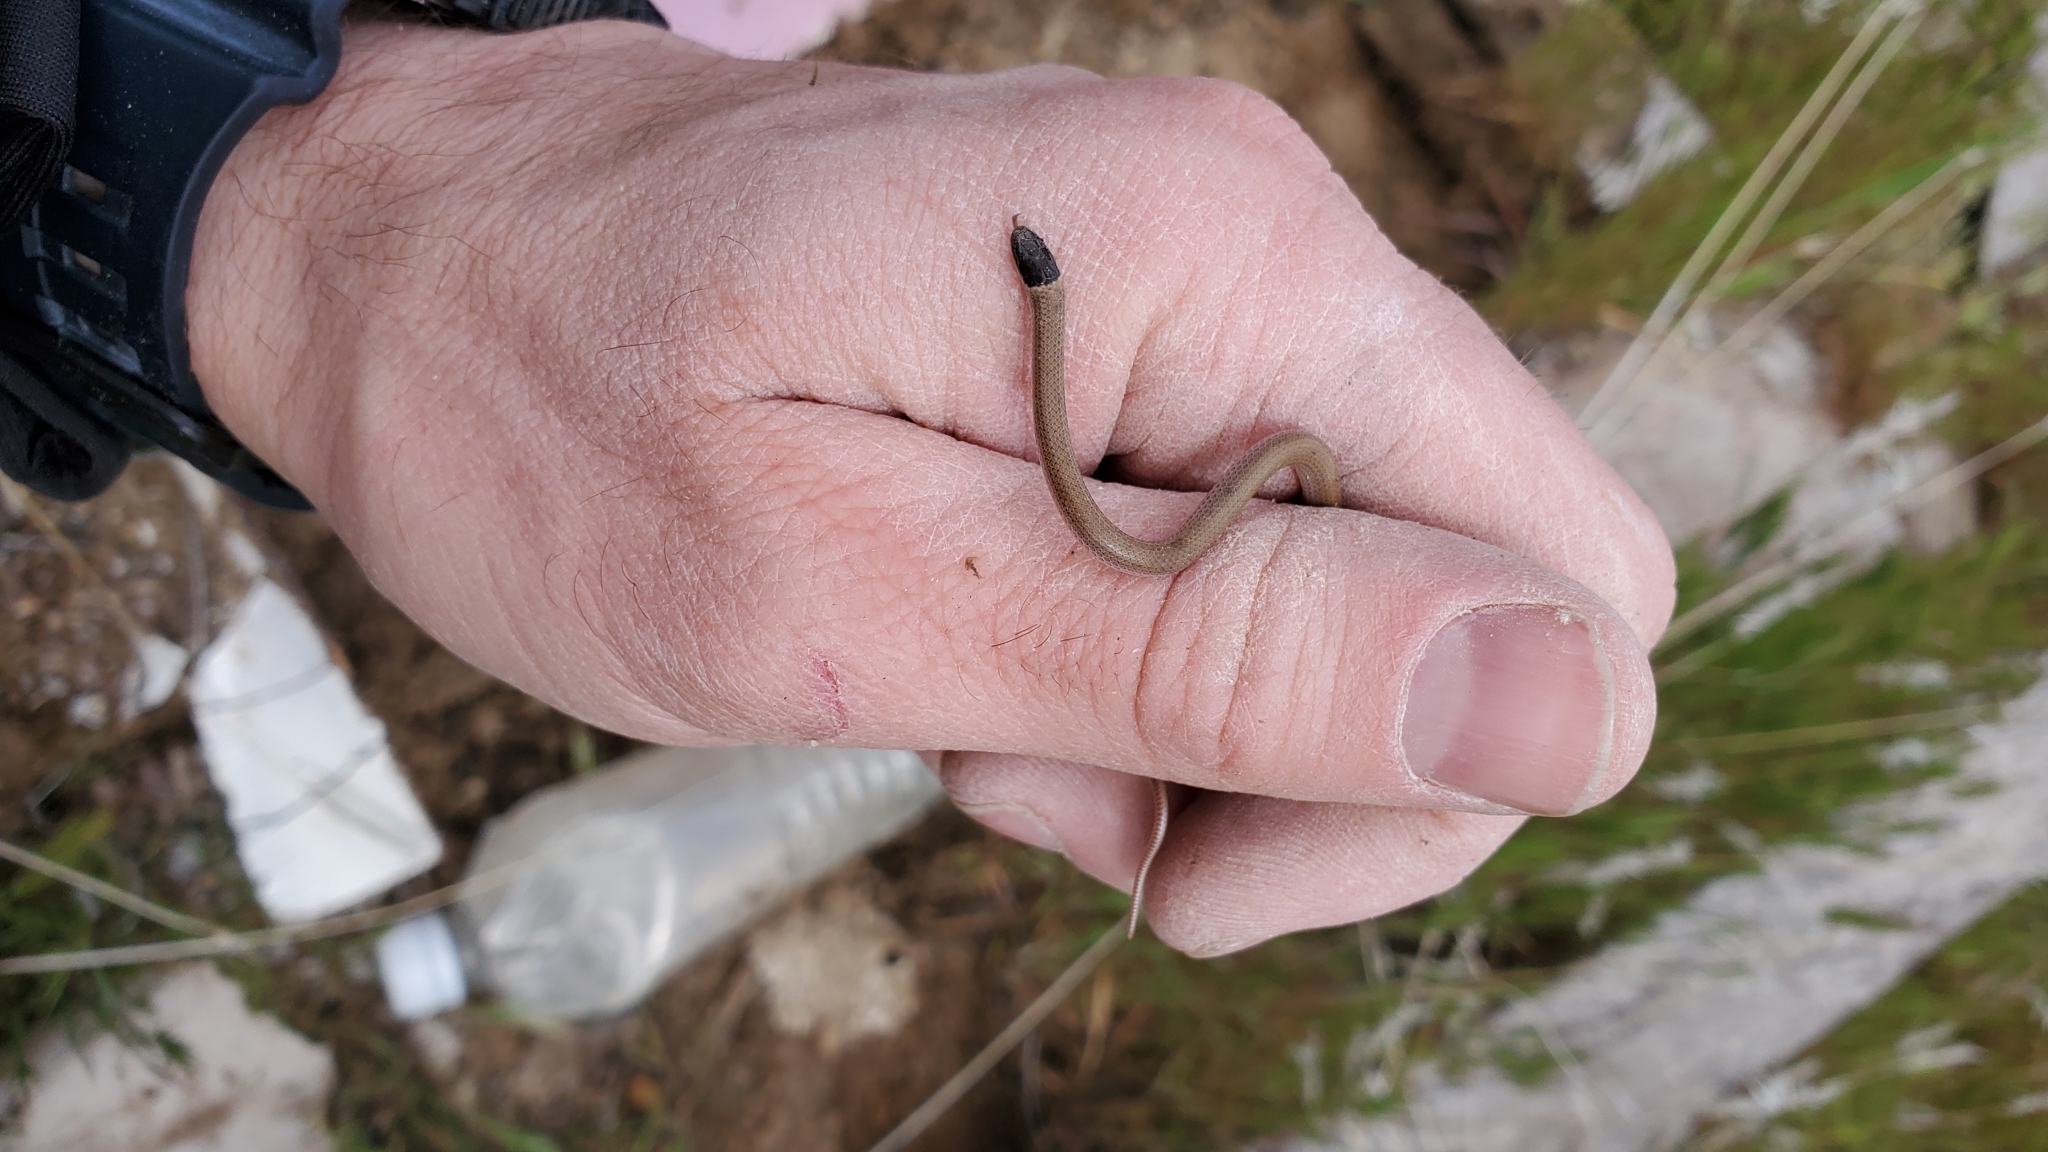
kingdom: Animalia
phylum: Chordata
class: Squamata
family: Colubridae
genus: Tantilla
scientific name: Tantilla hobartsmithi
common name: Southwestern blackhead snake
